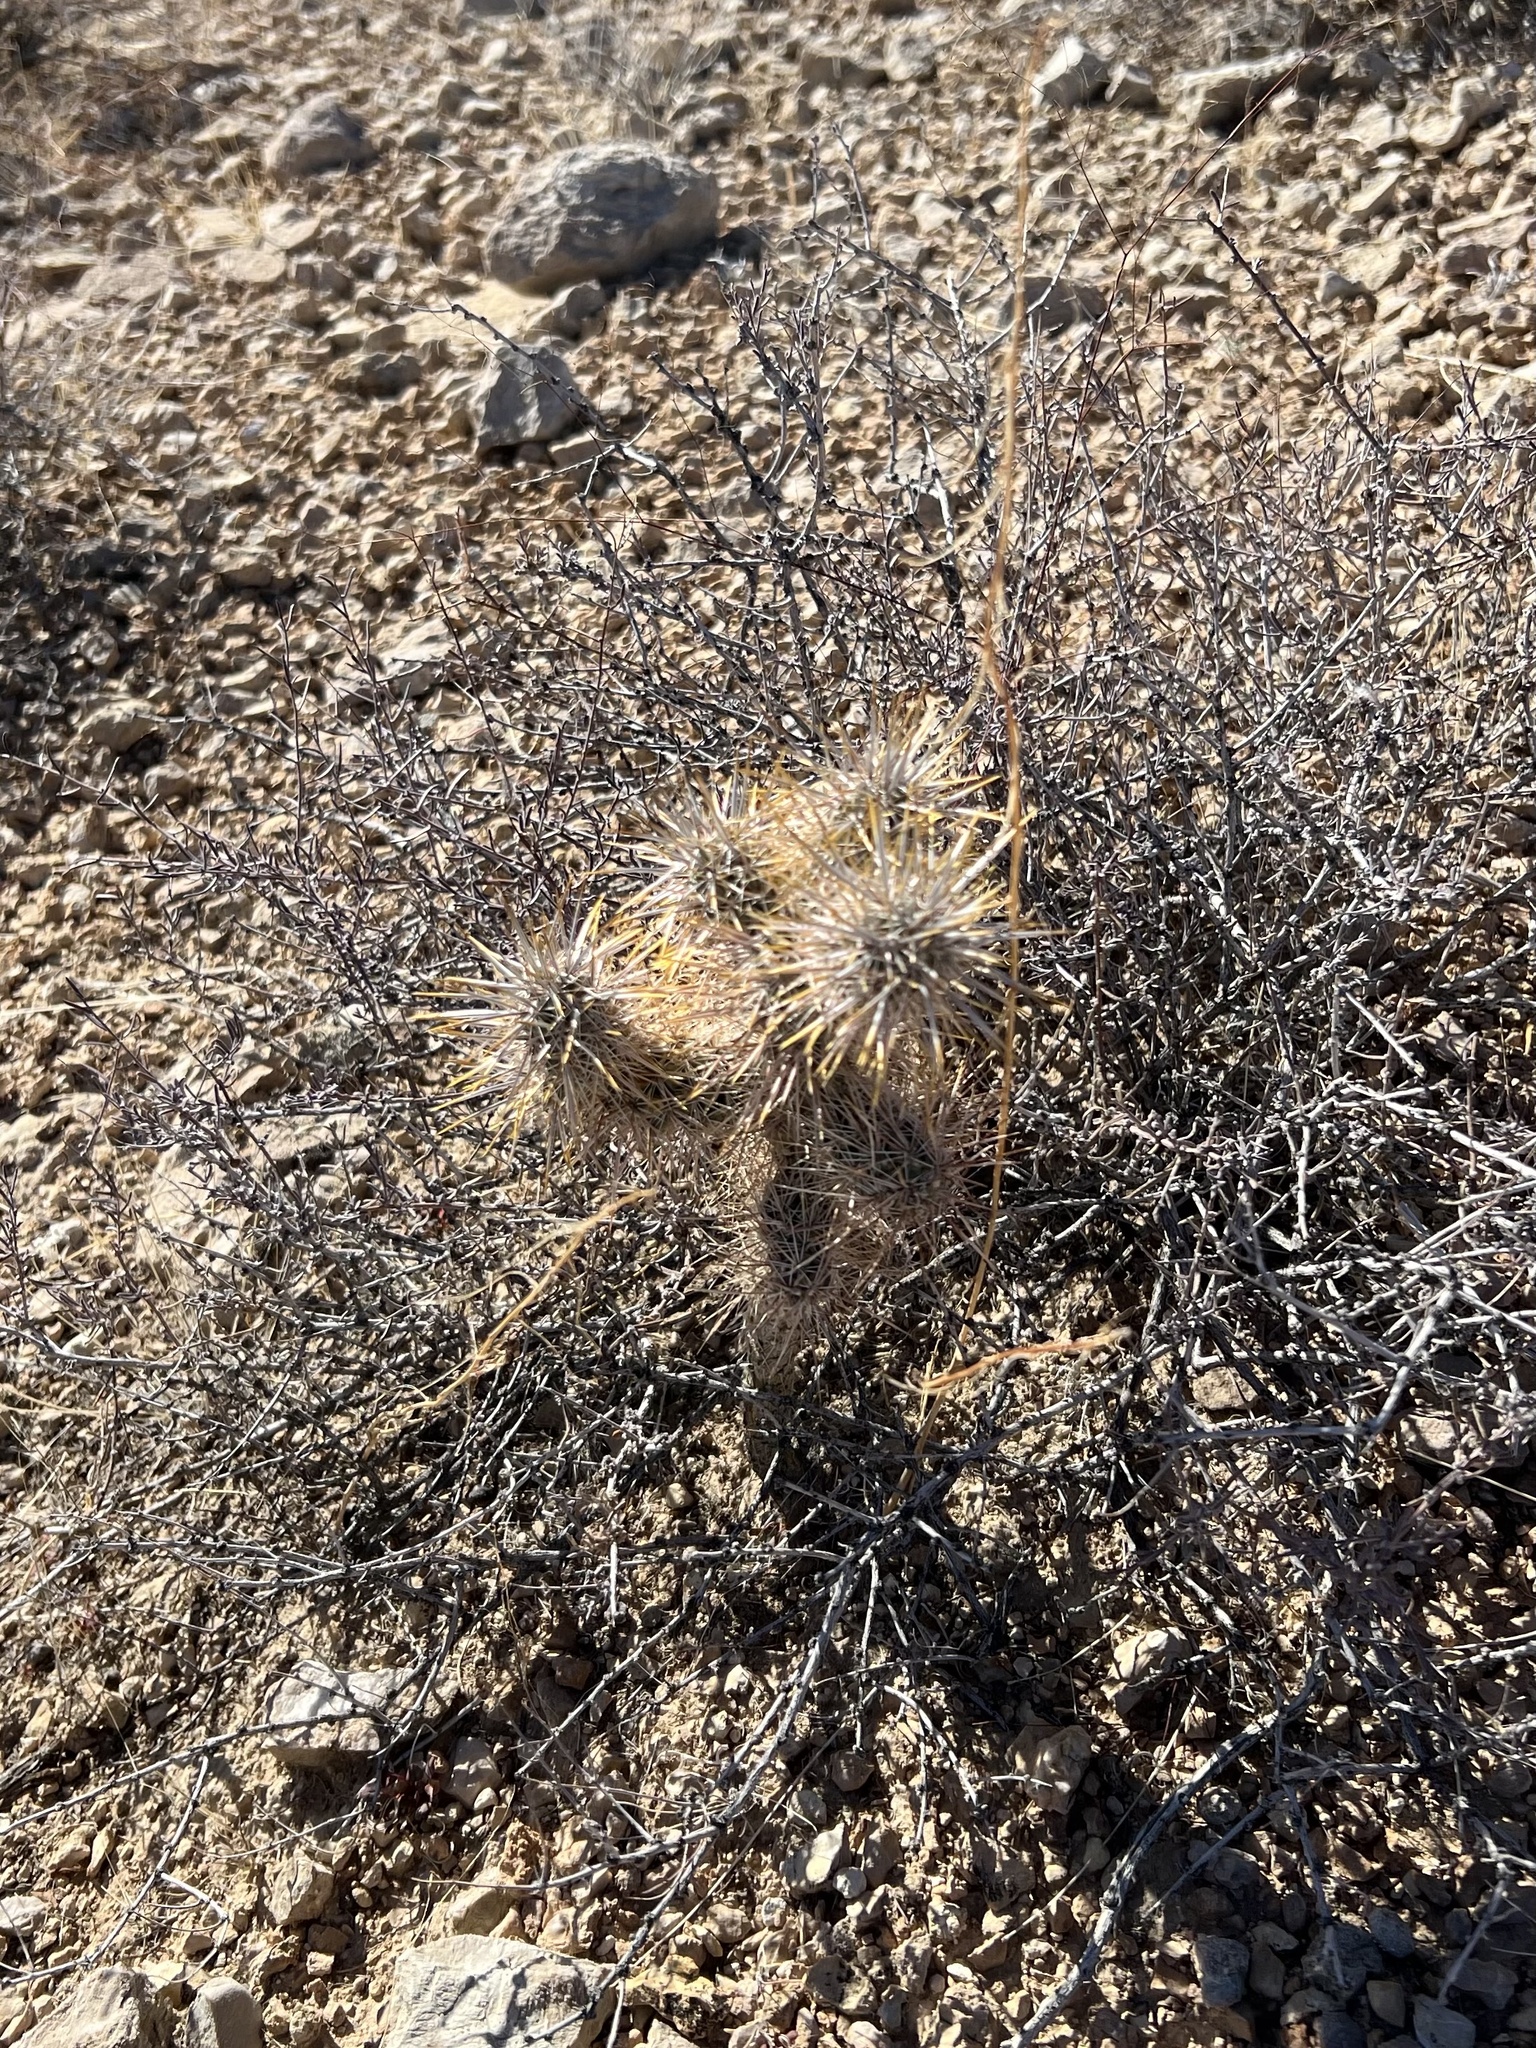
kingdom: Plantae
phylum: Tracheophyta
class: Magnoliopsida
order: Caryophyllales
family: Cactaceae
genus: Cylindropuntia
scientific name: Cylindropuntia echinocarpa
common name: Ground cholla
